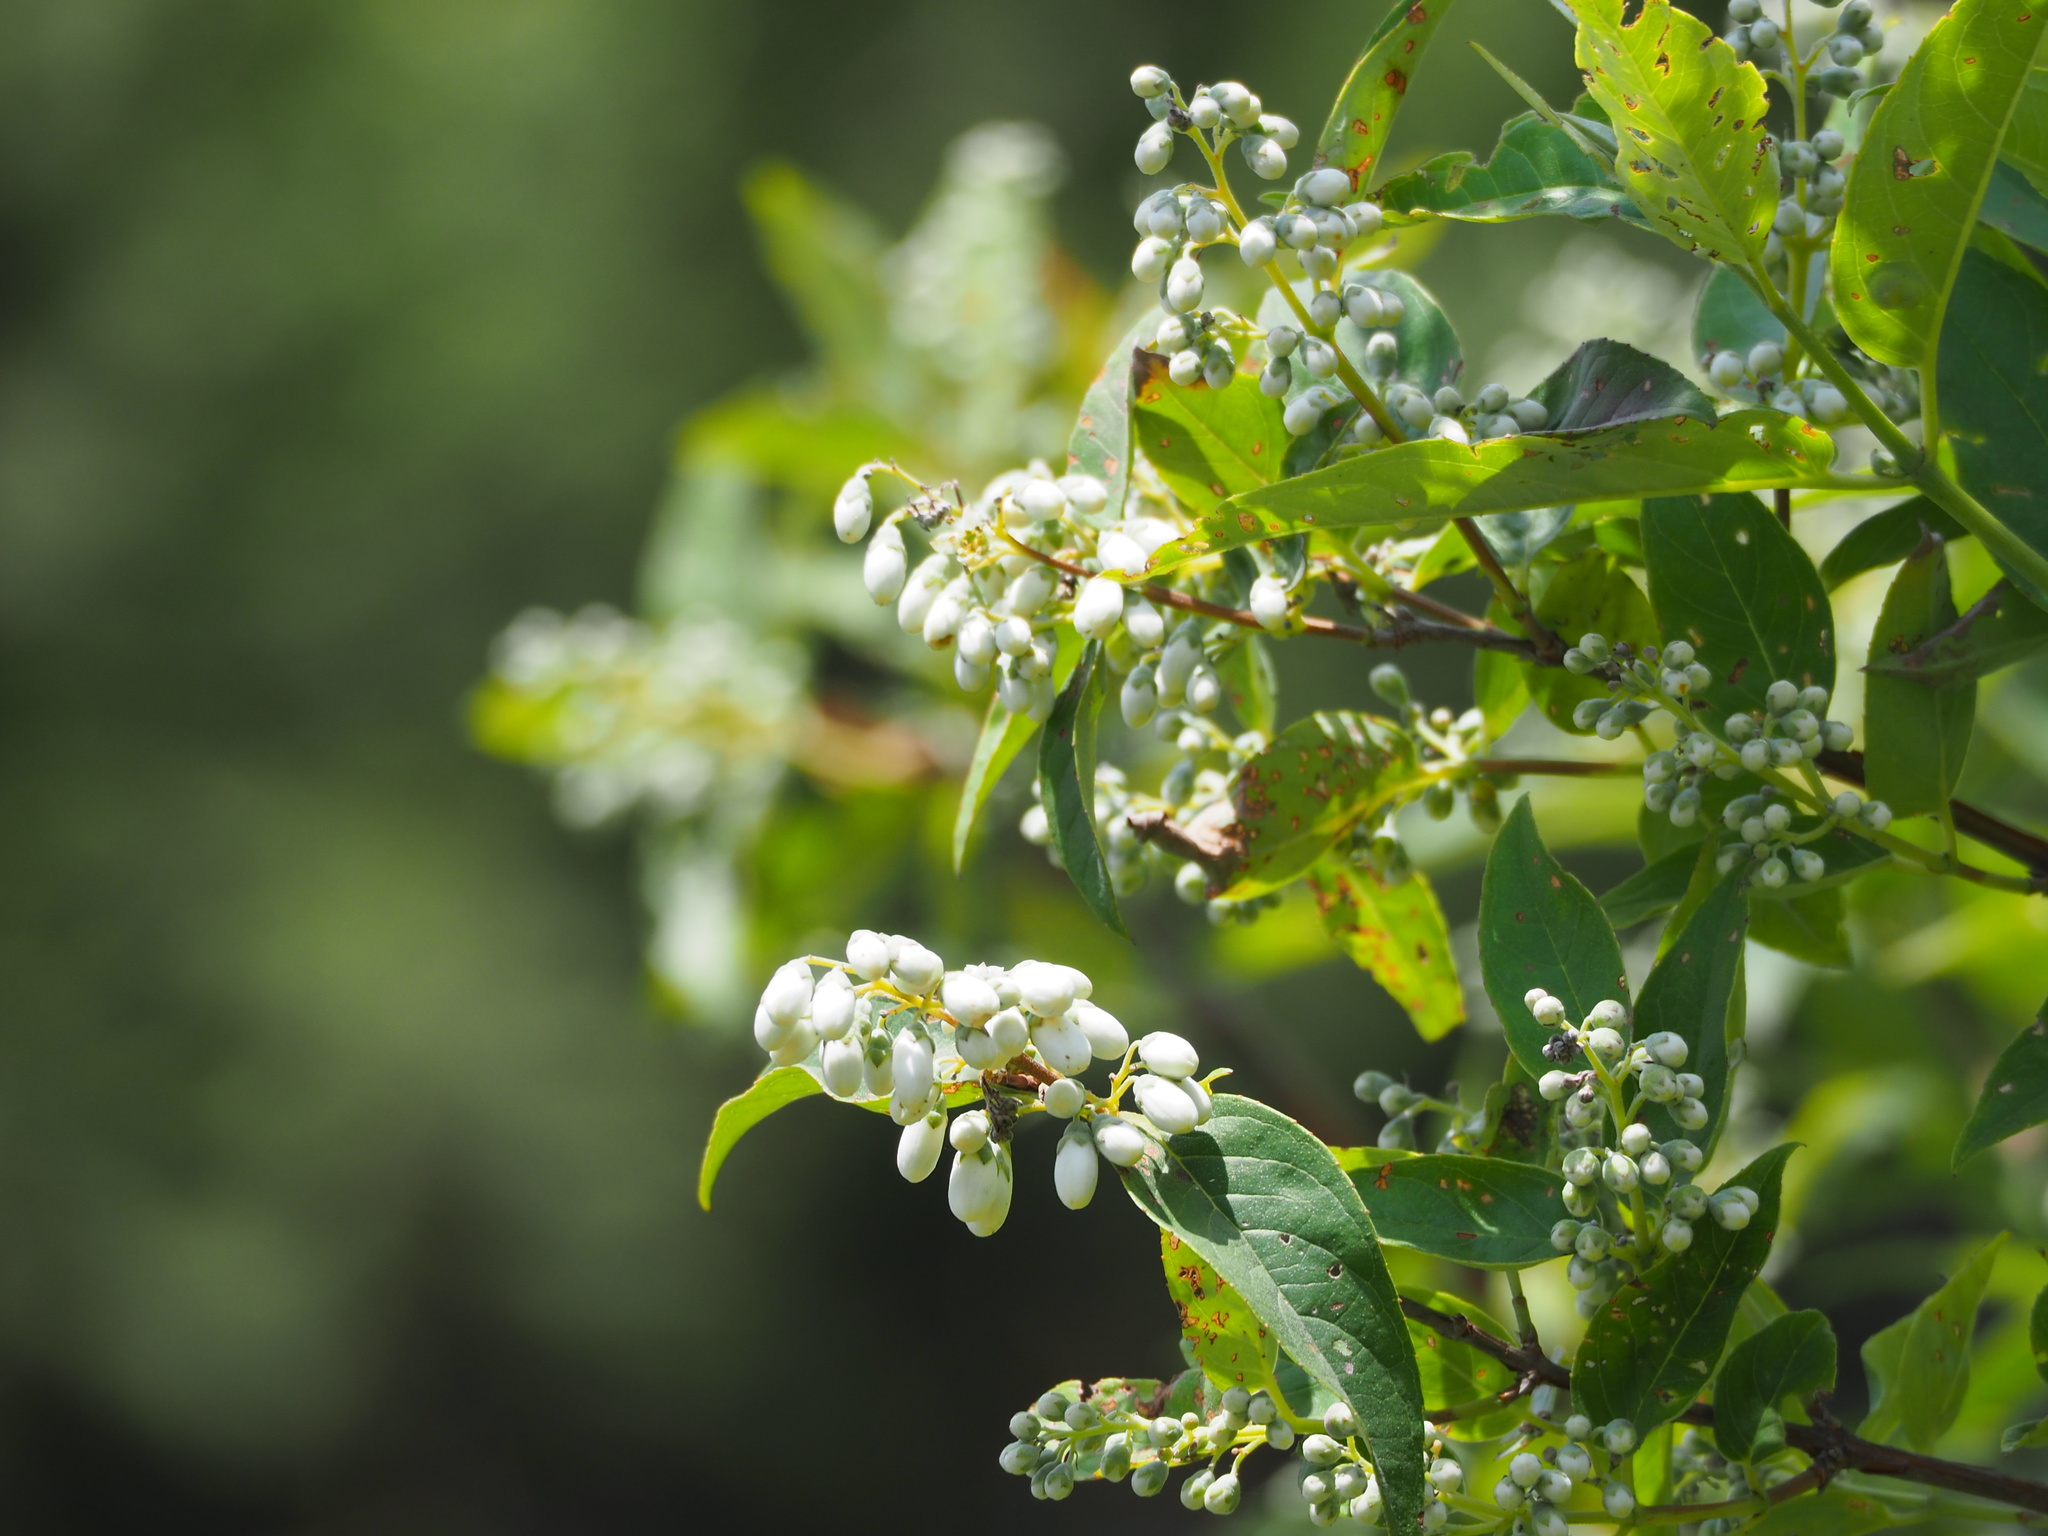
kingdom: Plantae
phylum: Tracheophyta
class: Magnoliopsida
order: Cornales
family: Hydrangeaceae
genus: Deutzia
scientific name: Deutzia pulchra
